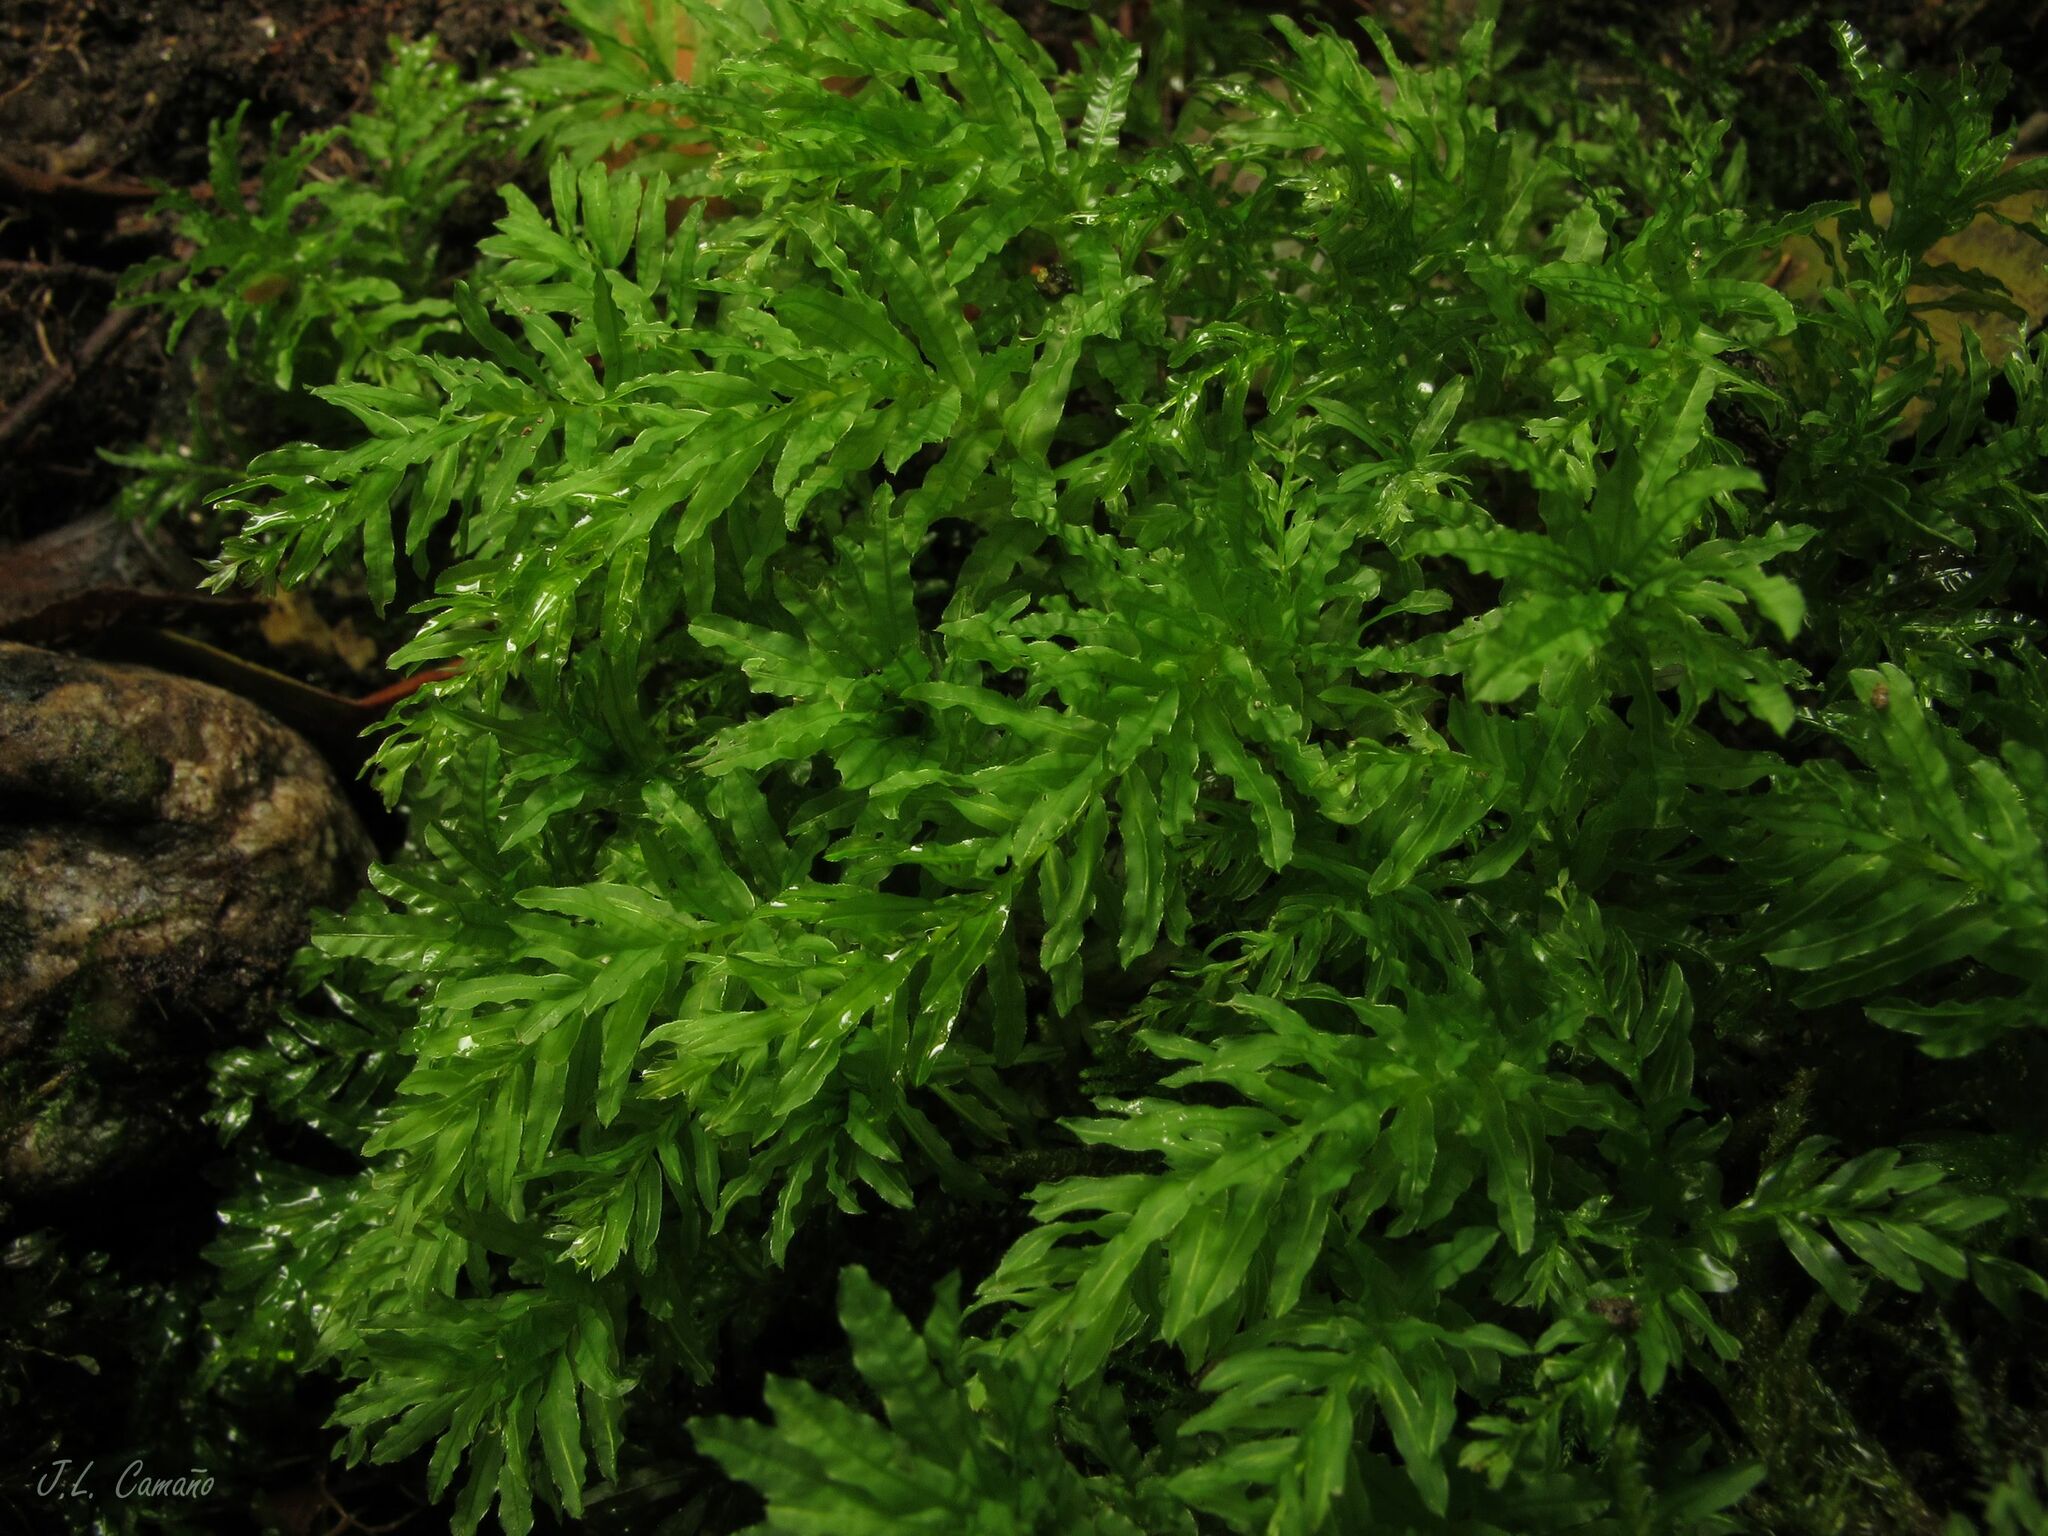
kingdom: Plantae
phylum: Bryophyta
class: Bryopsida
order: Bryales
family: Mniaceae
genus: Plagiomnium
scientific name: Plagiomnium undulatum
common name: Hart's-tongue thyme-moss
